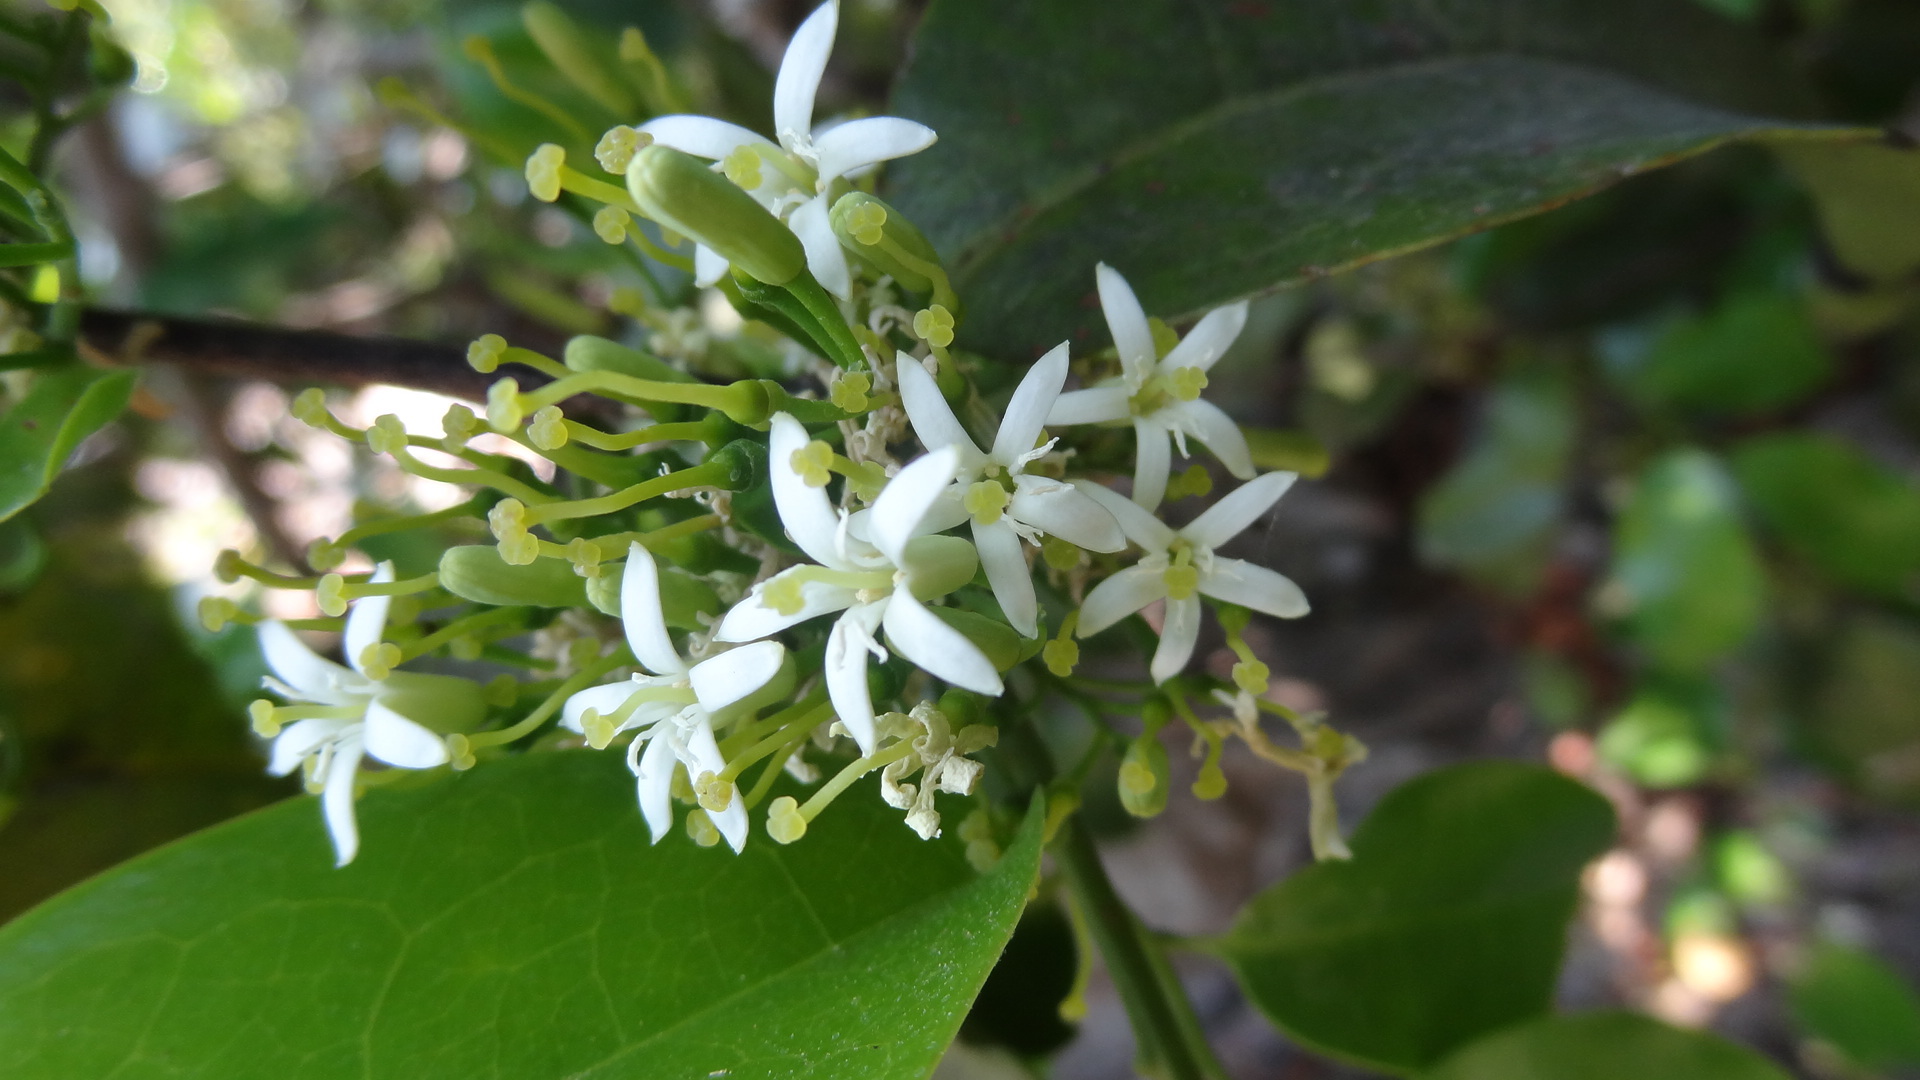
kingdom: Plantae
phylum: Tracheophyta
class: Magnoliopsida
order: Santalales
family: Olacaceae
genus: Olax
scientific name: Olax imbricata
